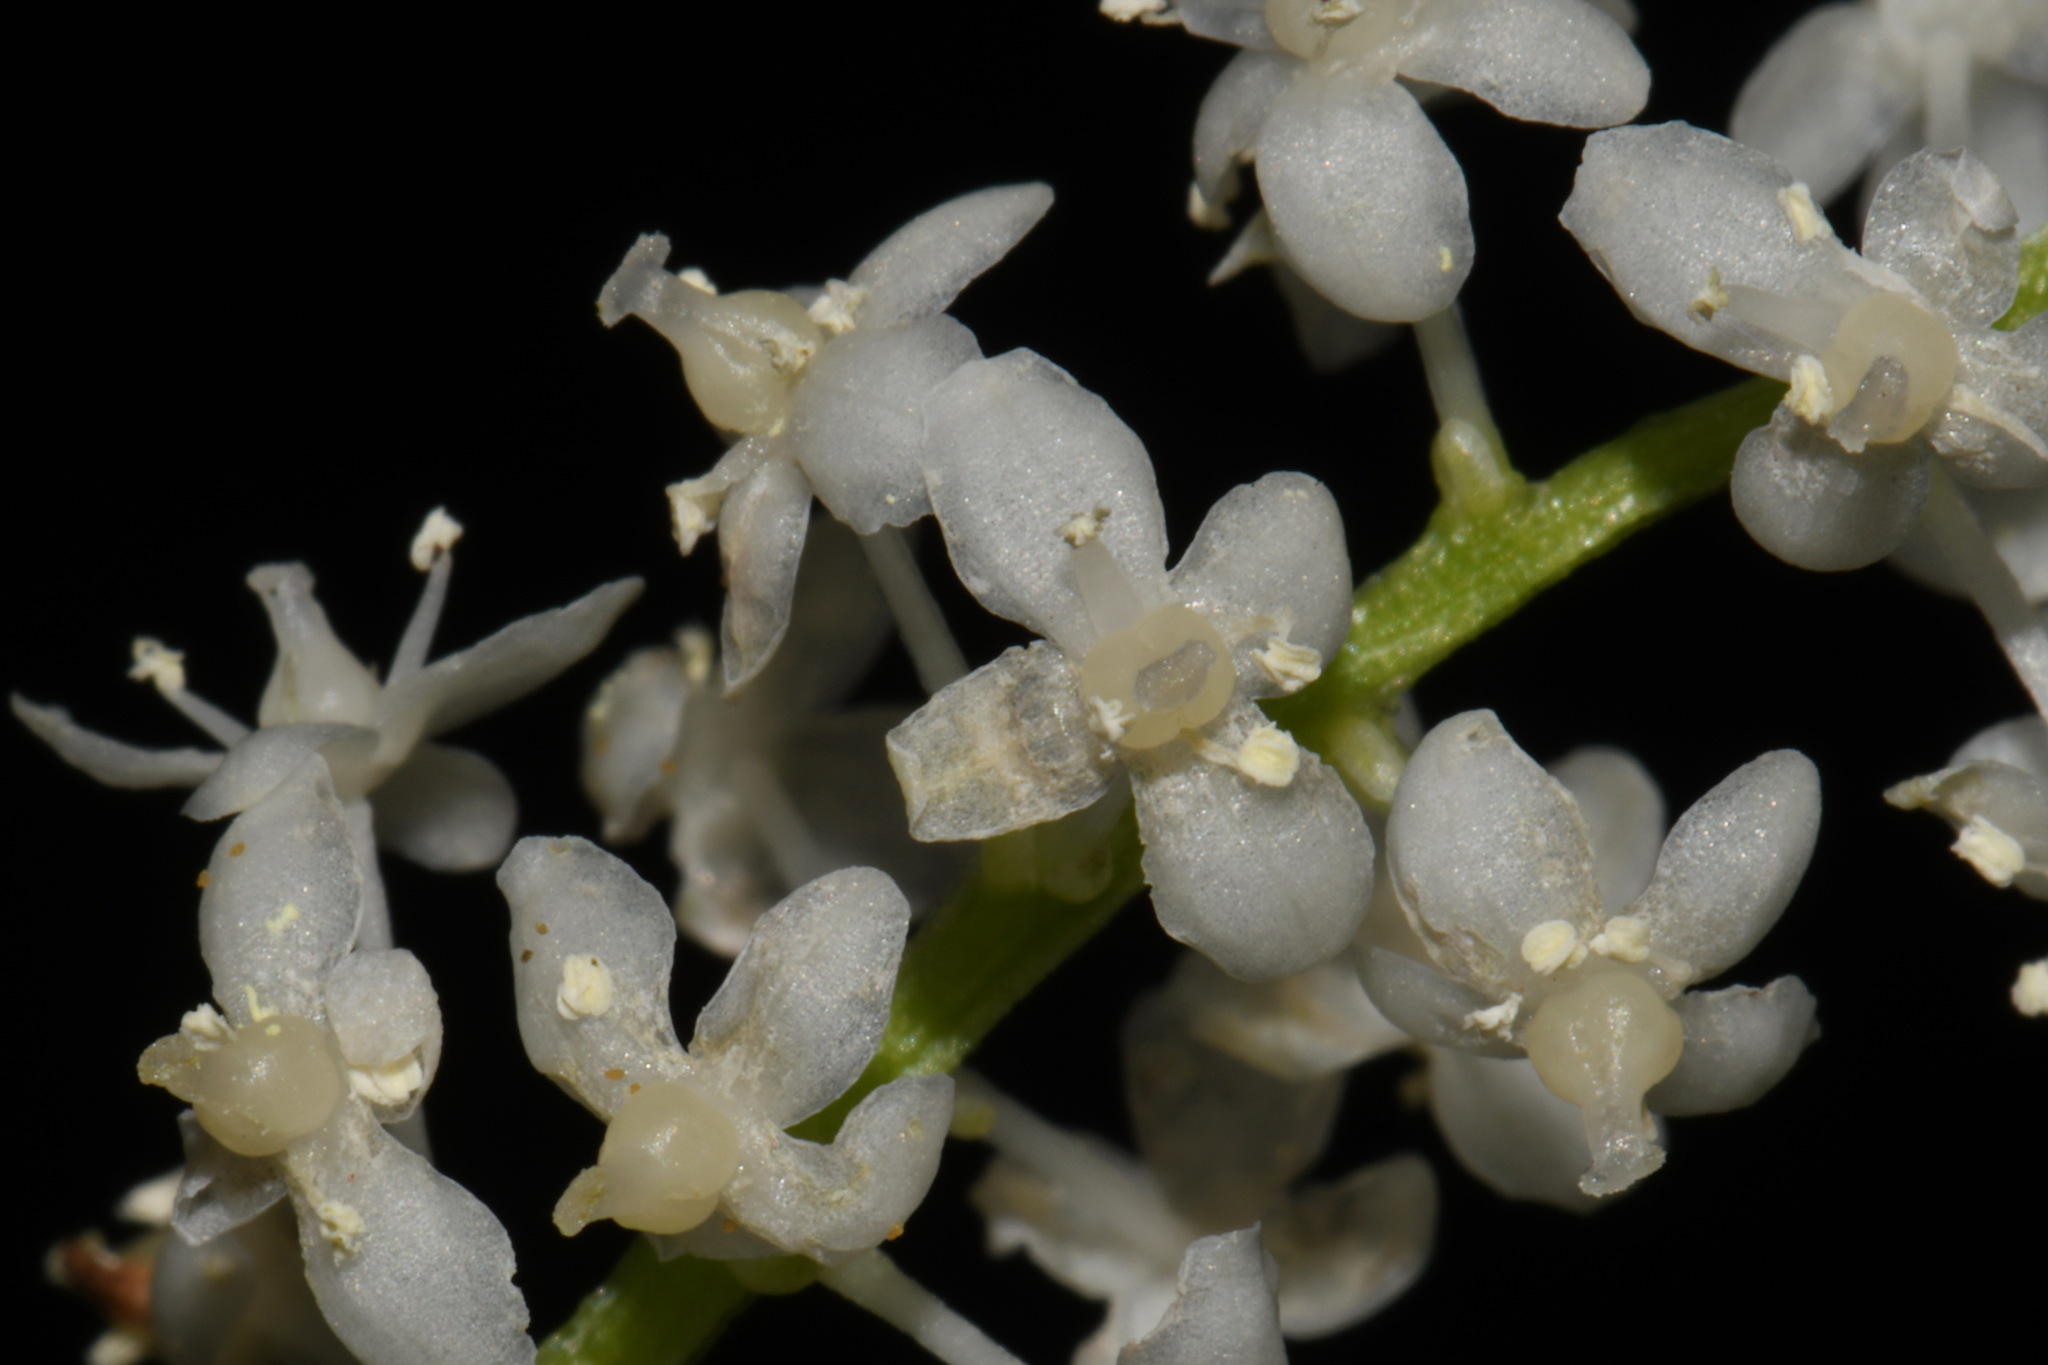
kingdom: Plantae
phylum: Tracheophyta
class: Liliopsida
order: Asparagales
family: Asparagaceae
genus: Maianthemum
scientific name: Maianthemum dilatatum
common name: False lily-of-the-valley
